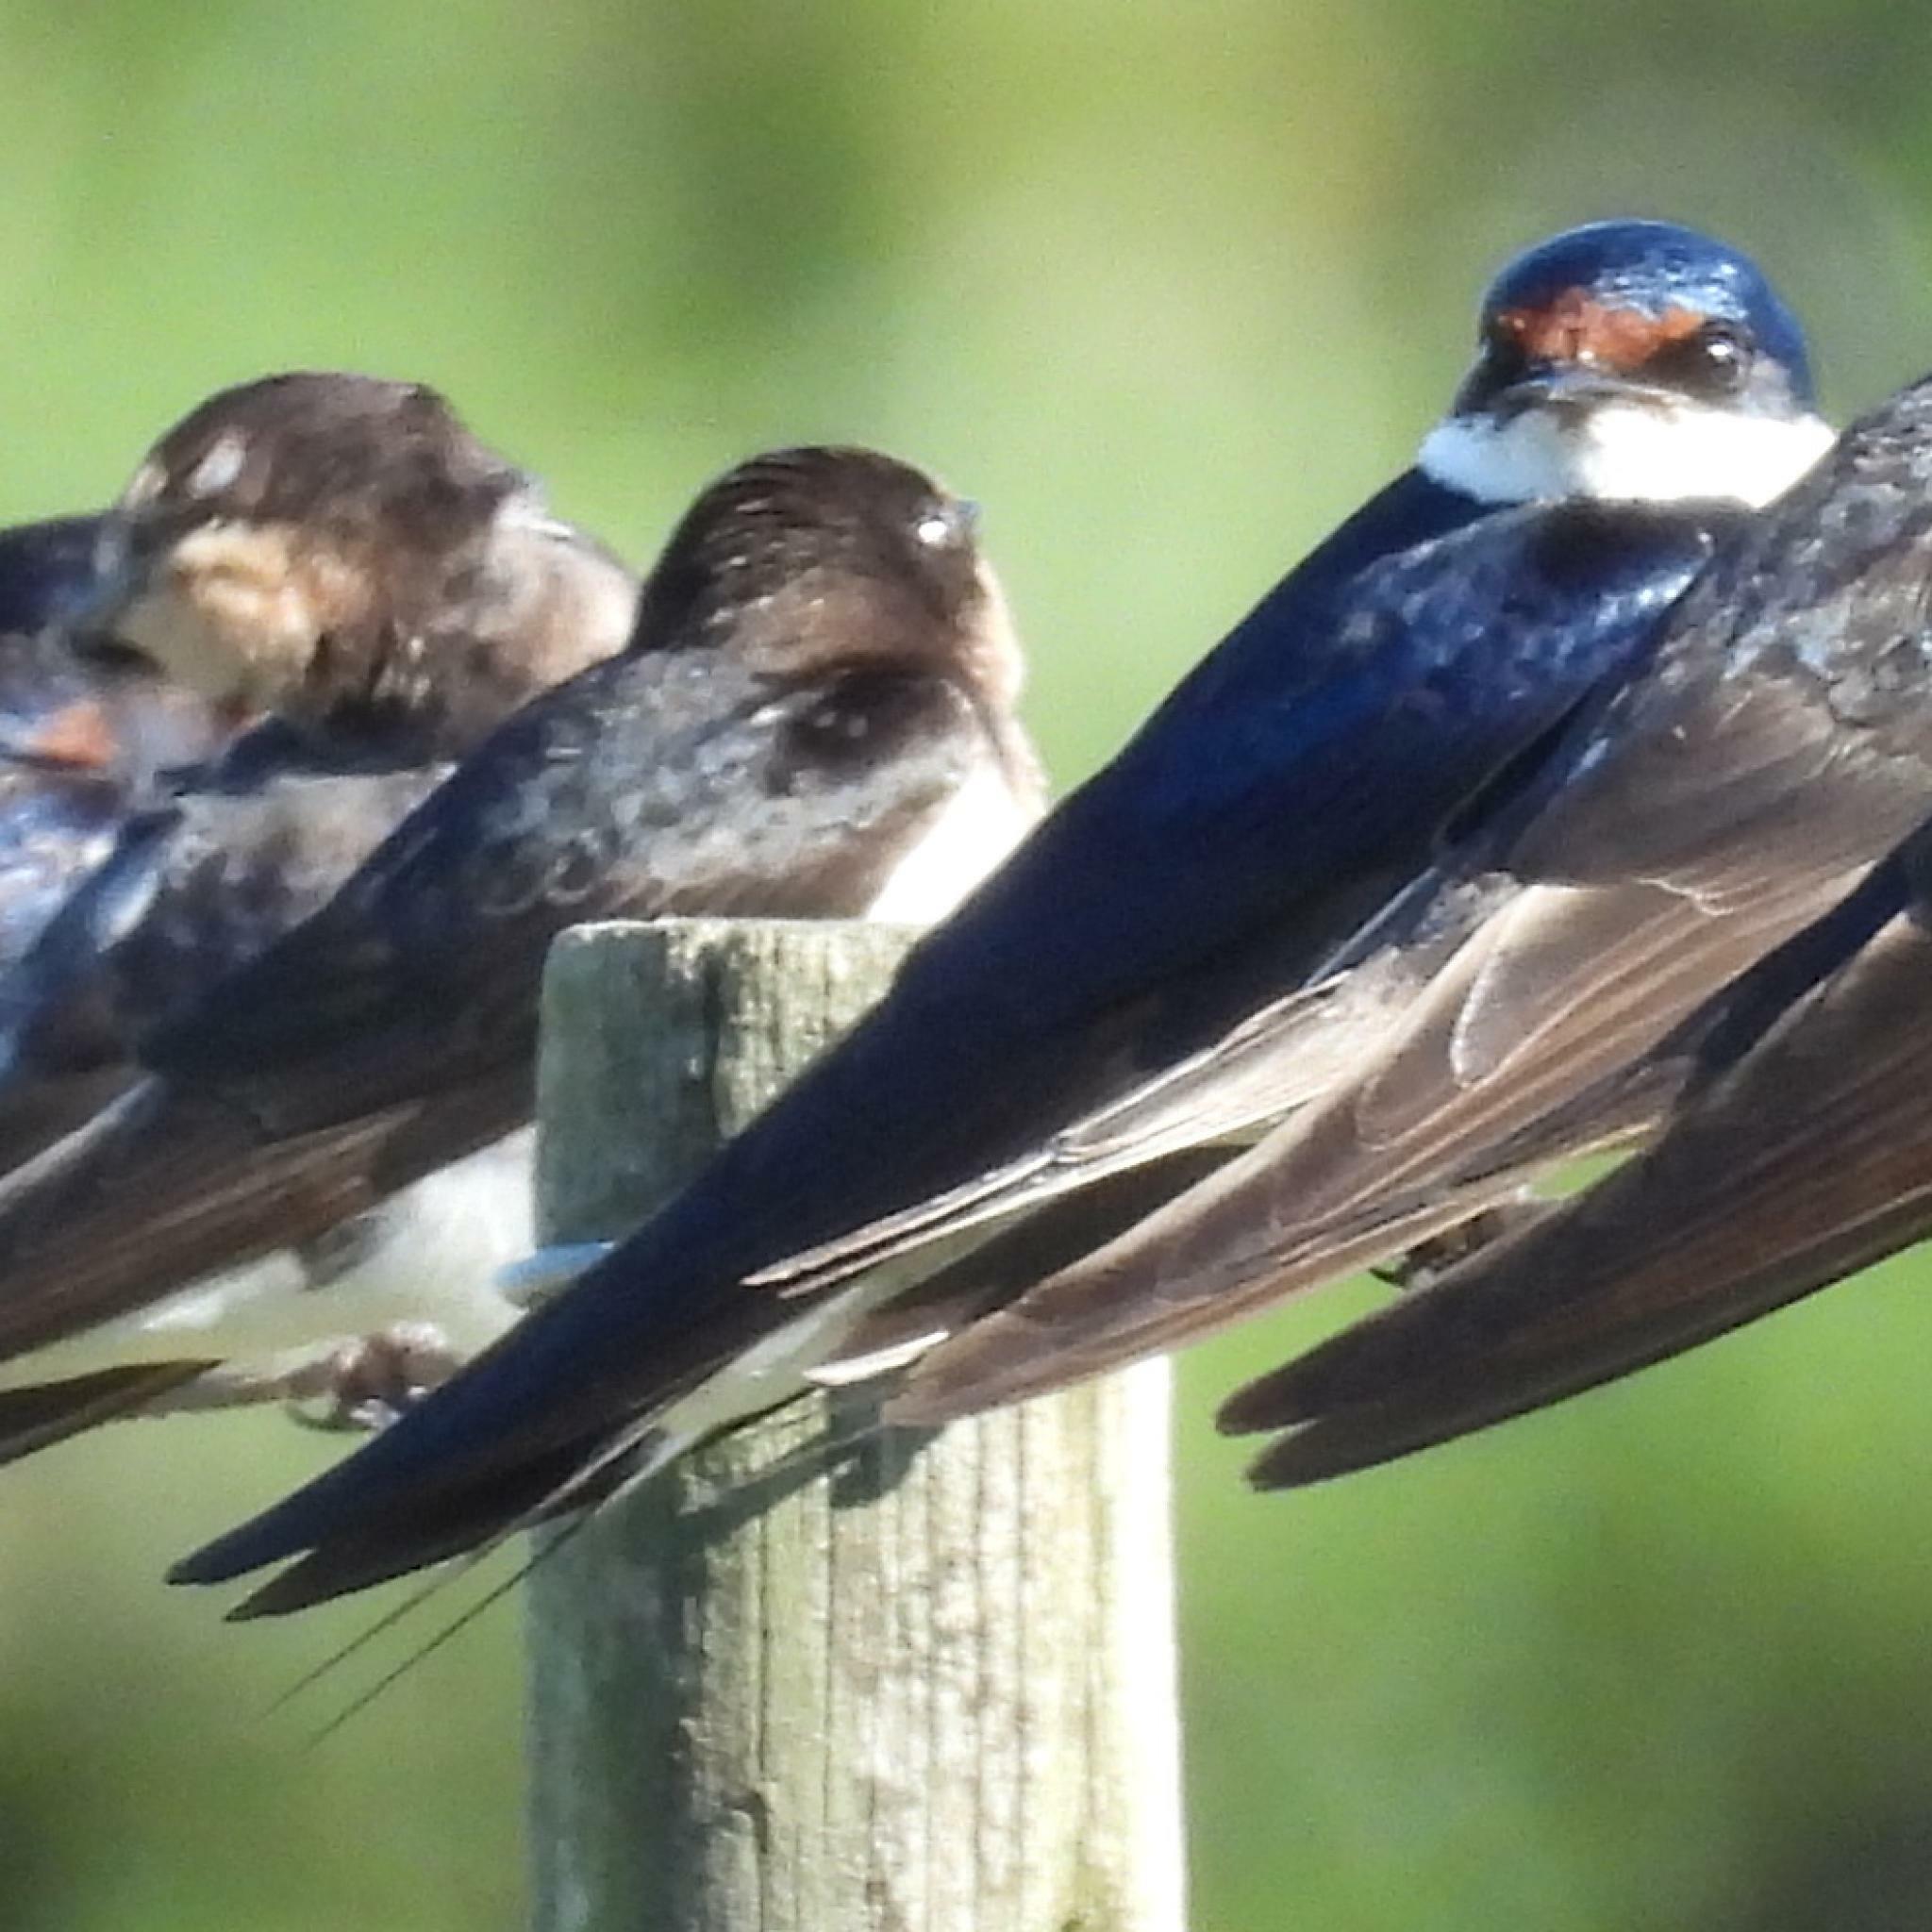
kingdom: Animalia
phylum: Chordata
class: Aves
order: Passeriformes
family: Hirundinidae
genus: Hirundo
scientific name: Hirundo albigularis
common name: White-throated swallow
